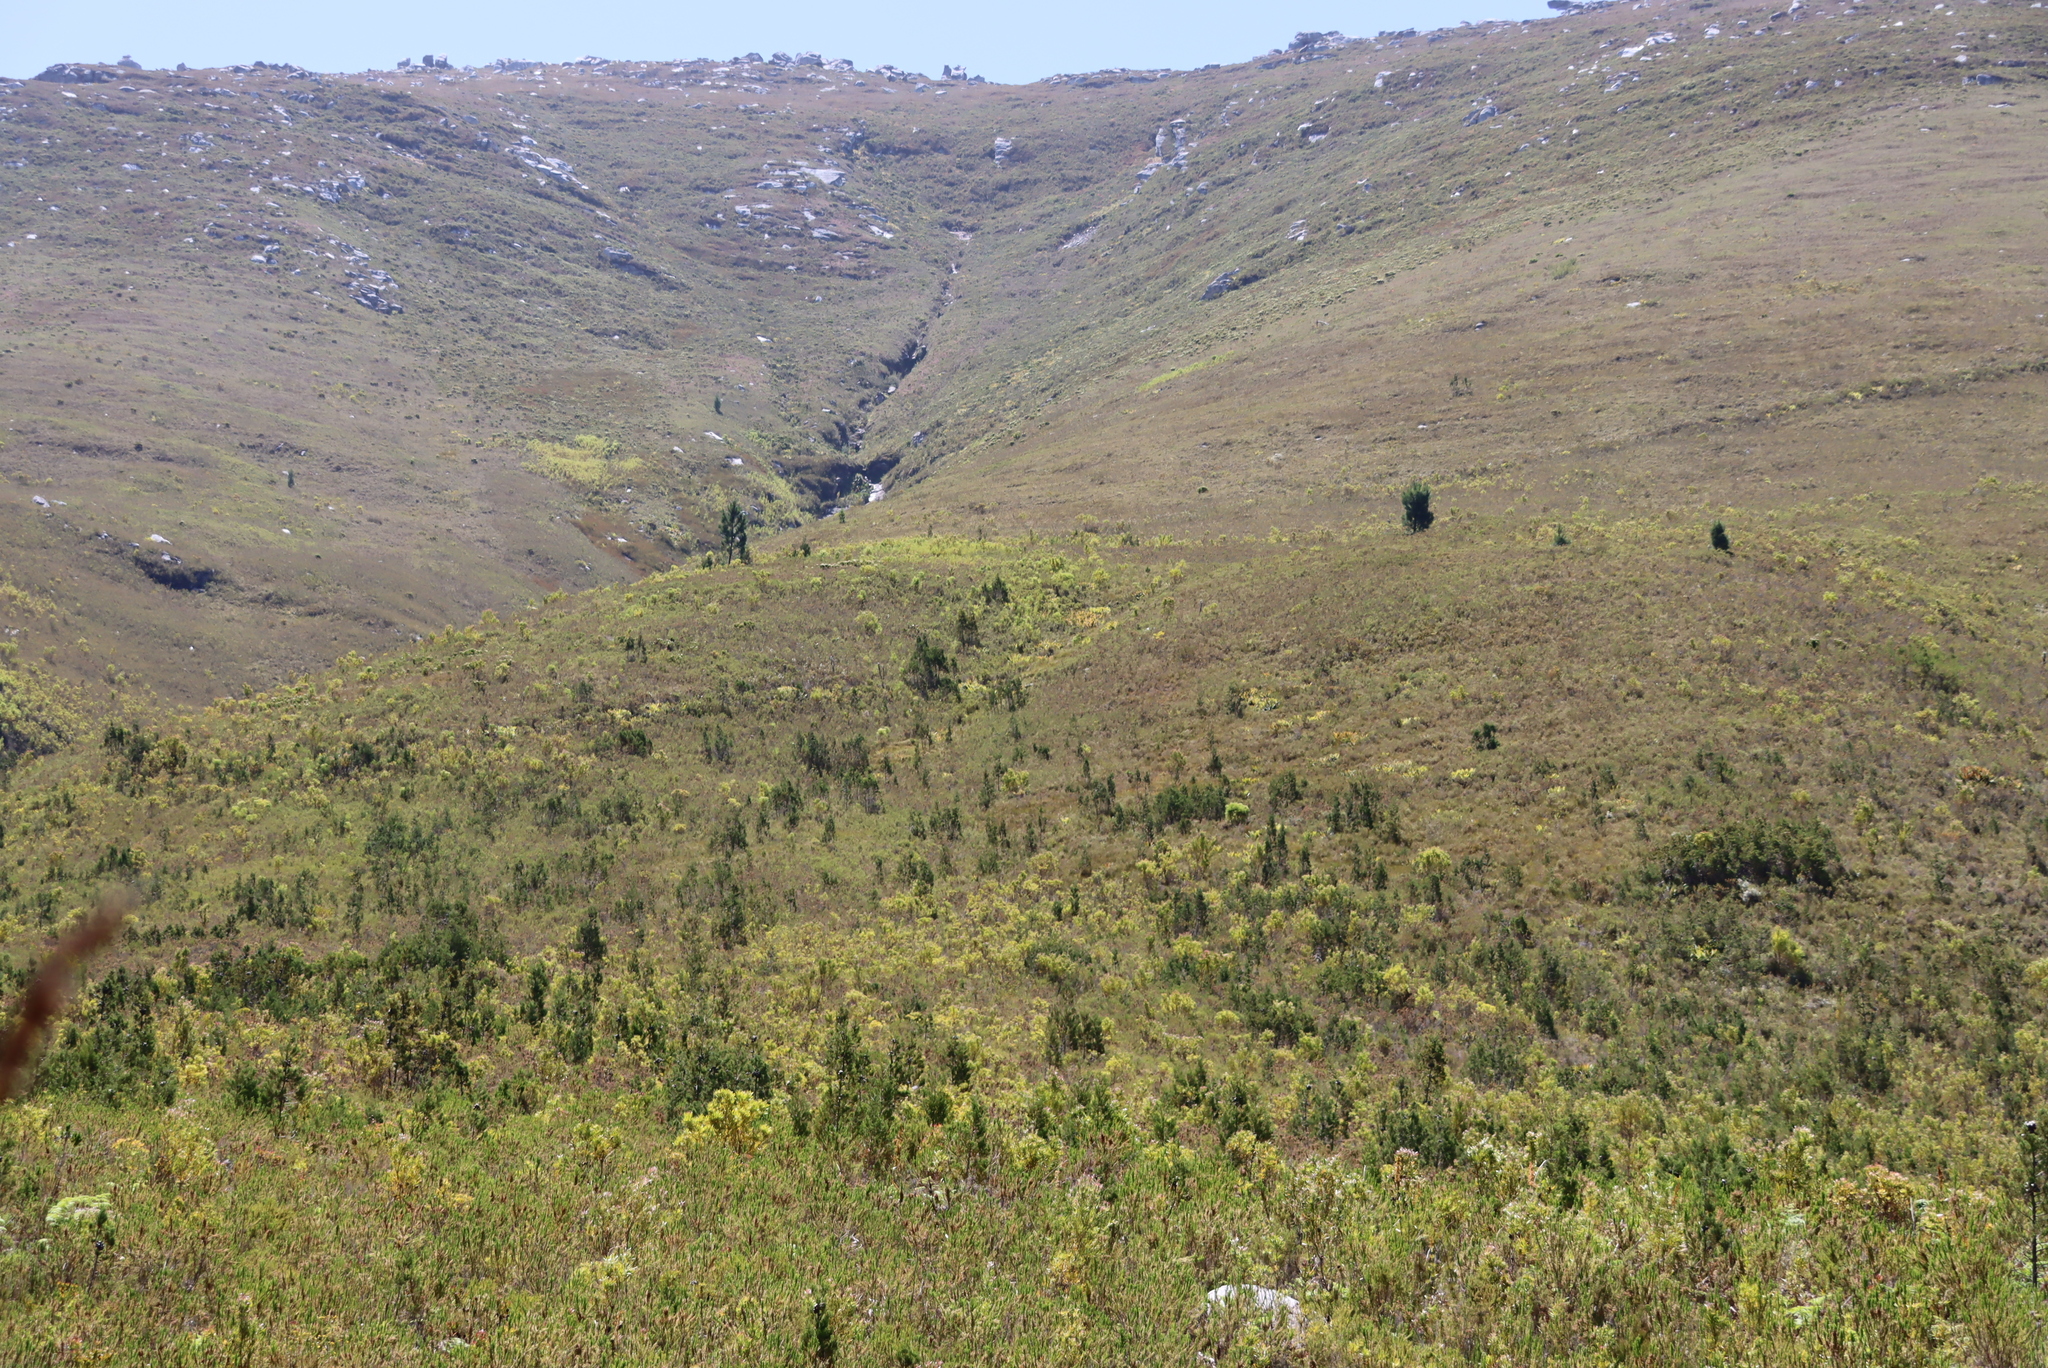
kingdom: Plantae
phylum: Tracheophyta
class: Pinopsida
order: Pinales
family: Cupressaceae
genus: Widdringtonia
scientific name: Widdringtonia nodiflora
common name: Cape cypress
